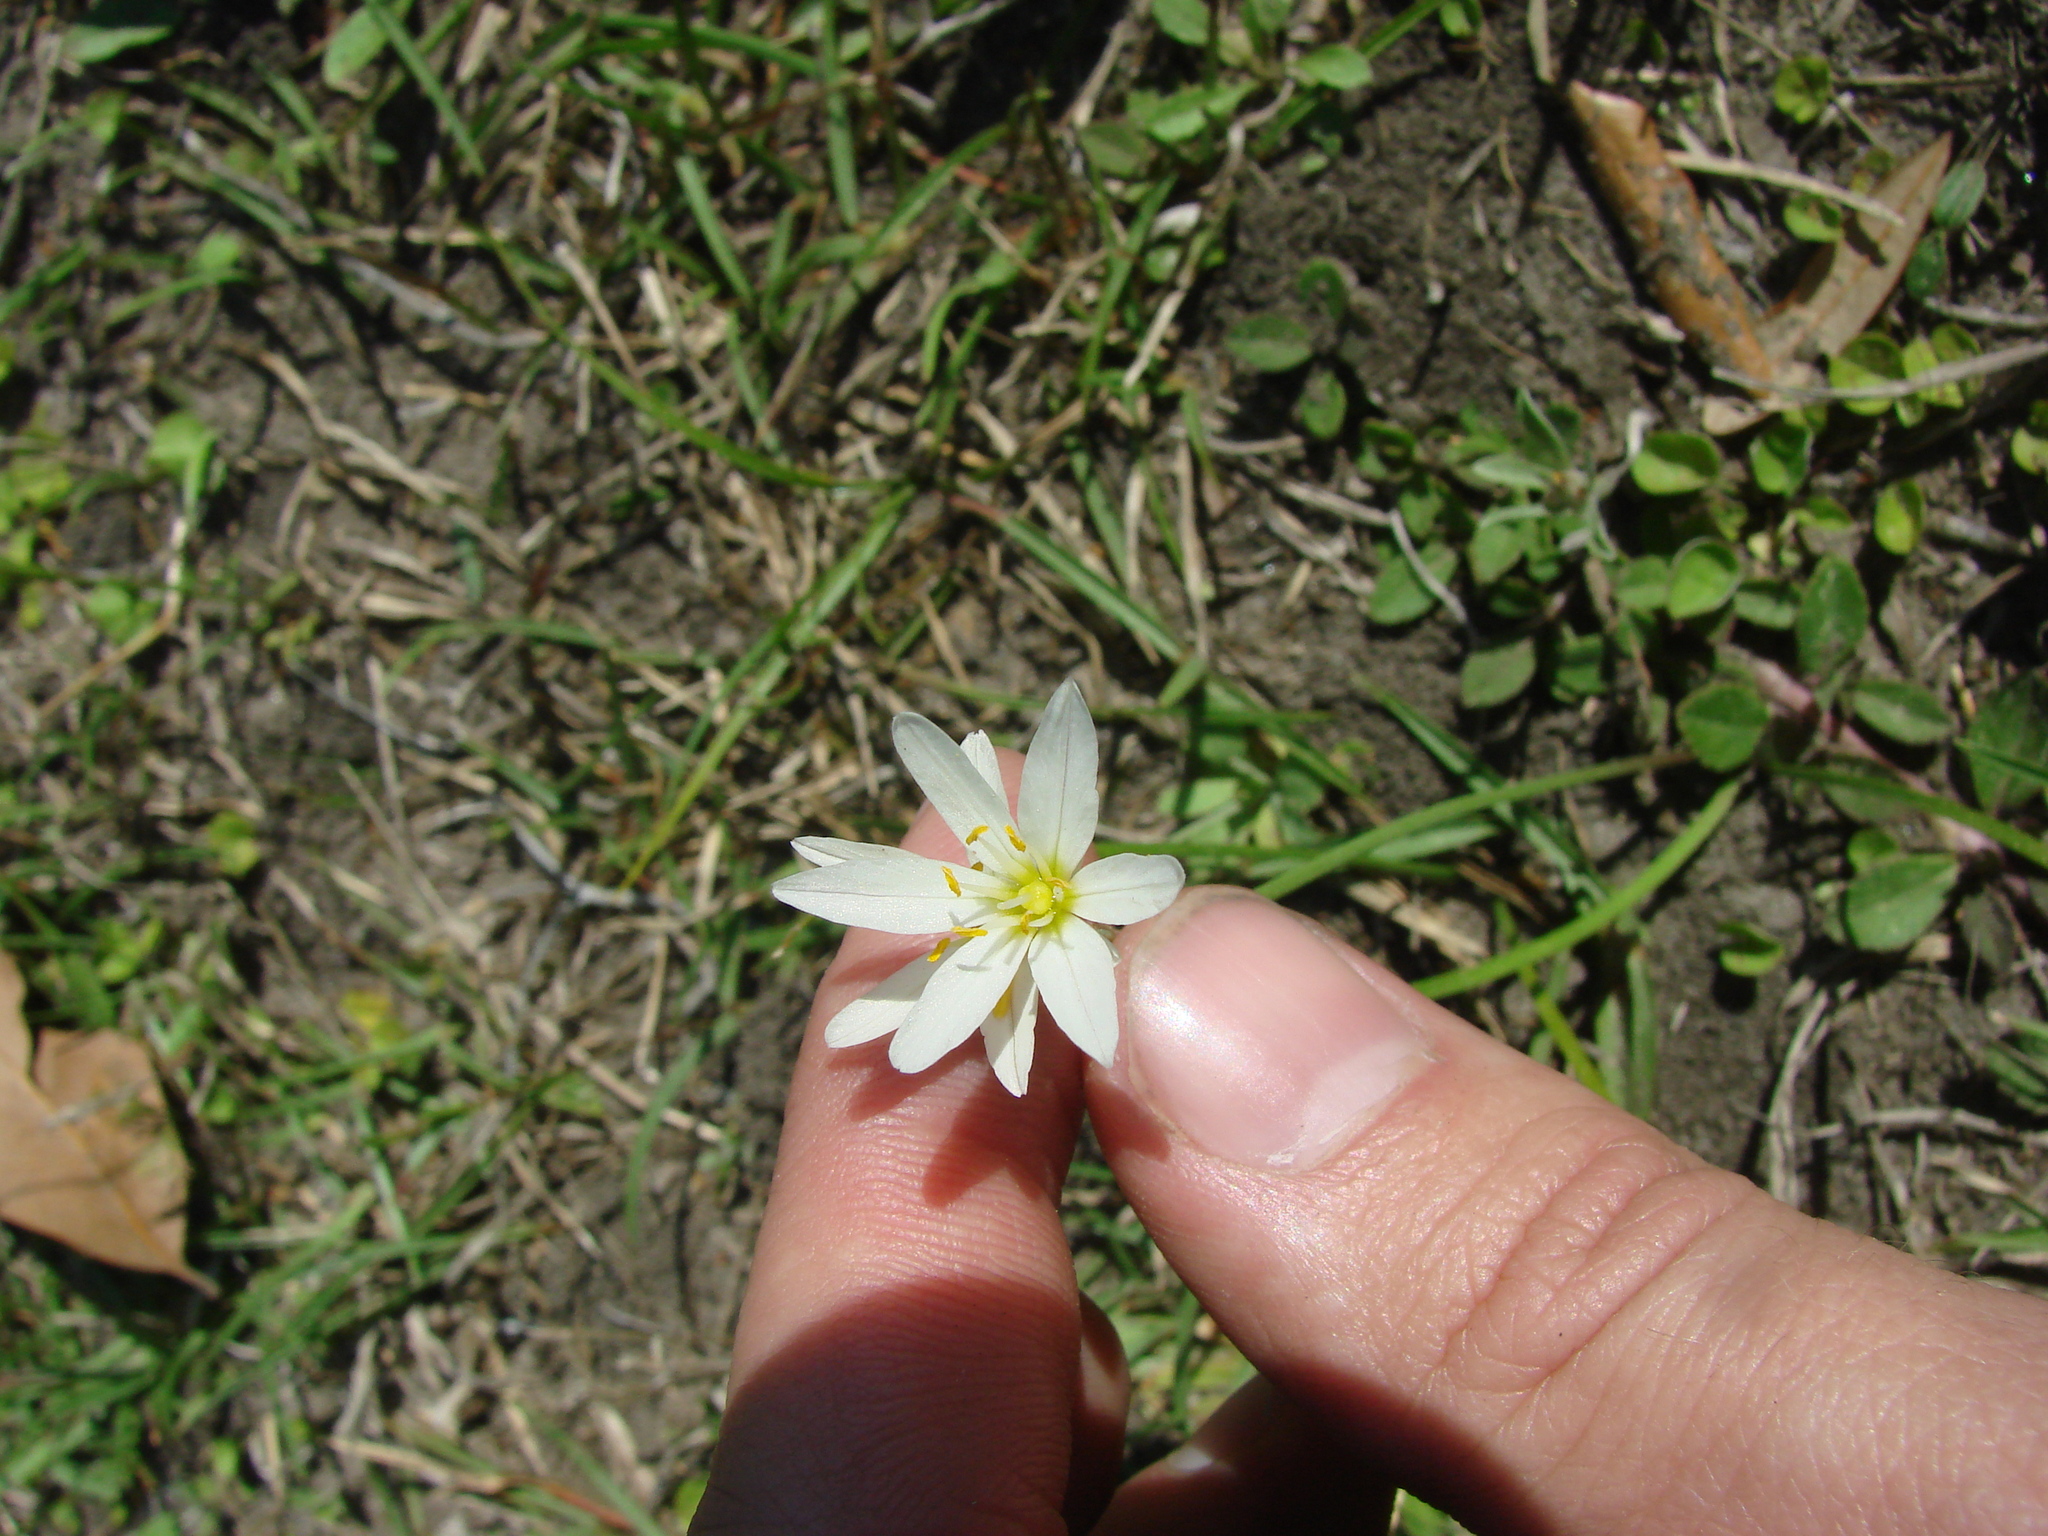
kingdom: Plantae
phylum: Tracheophyta
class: Liliopsida
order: Asparagales
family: Amaryllidaceae
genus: Nothoscordum
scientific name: Nothoscordum bivalve
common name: Crow-poison
